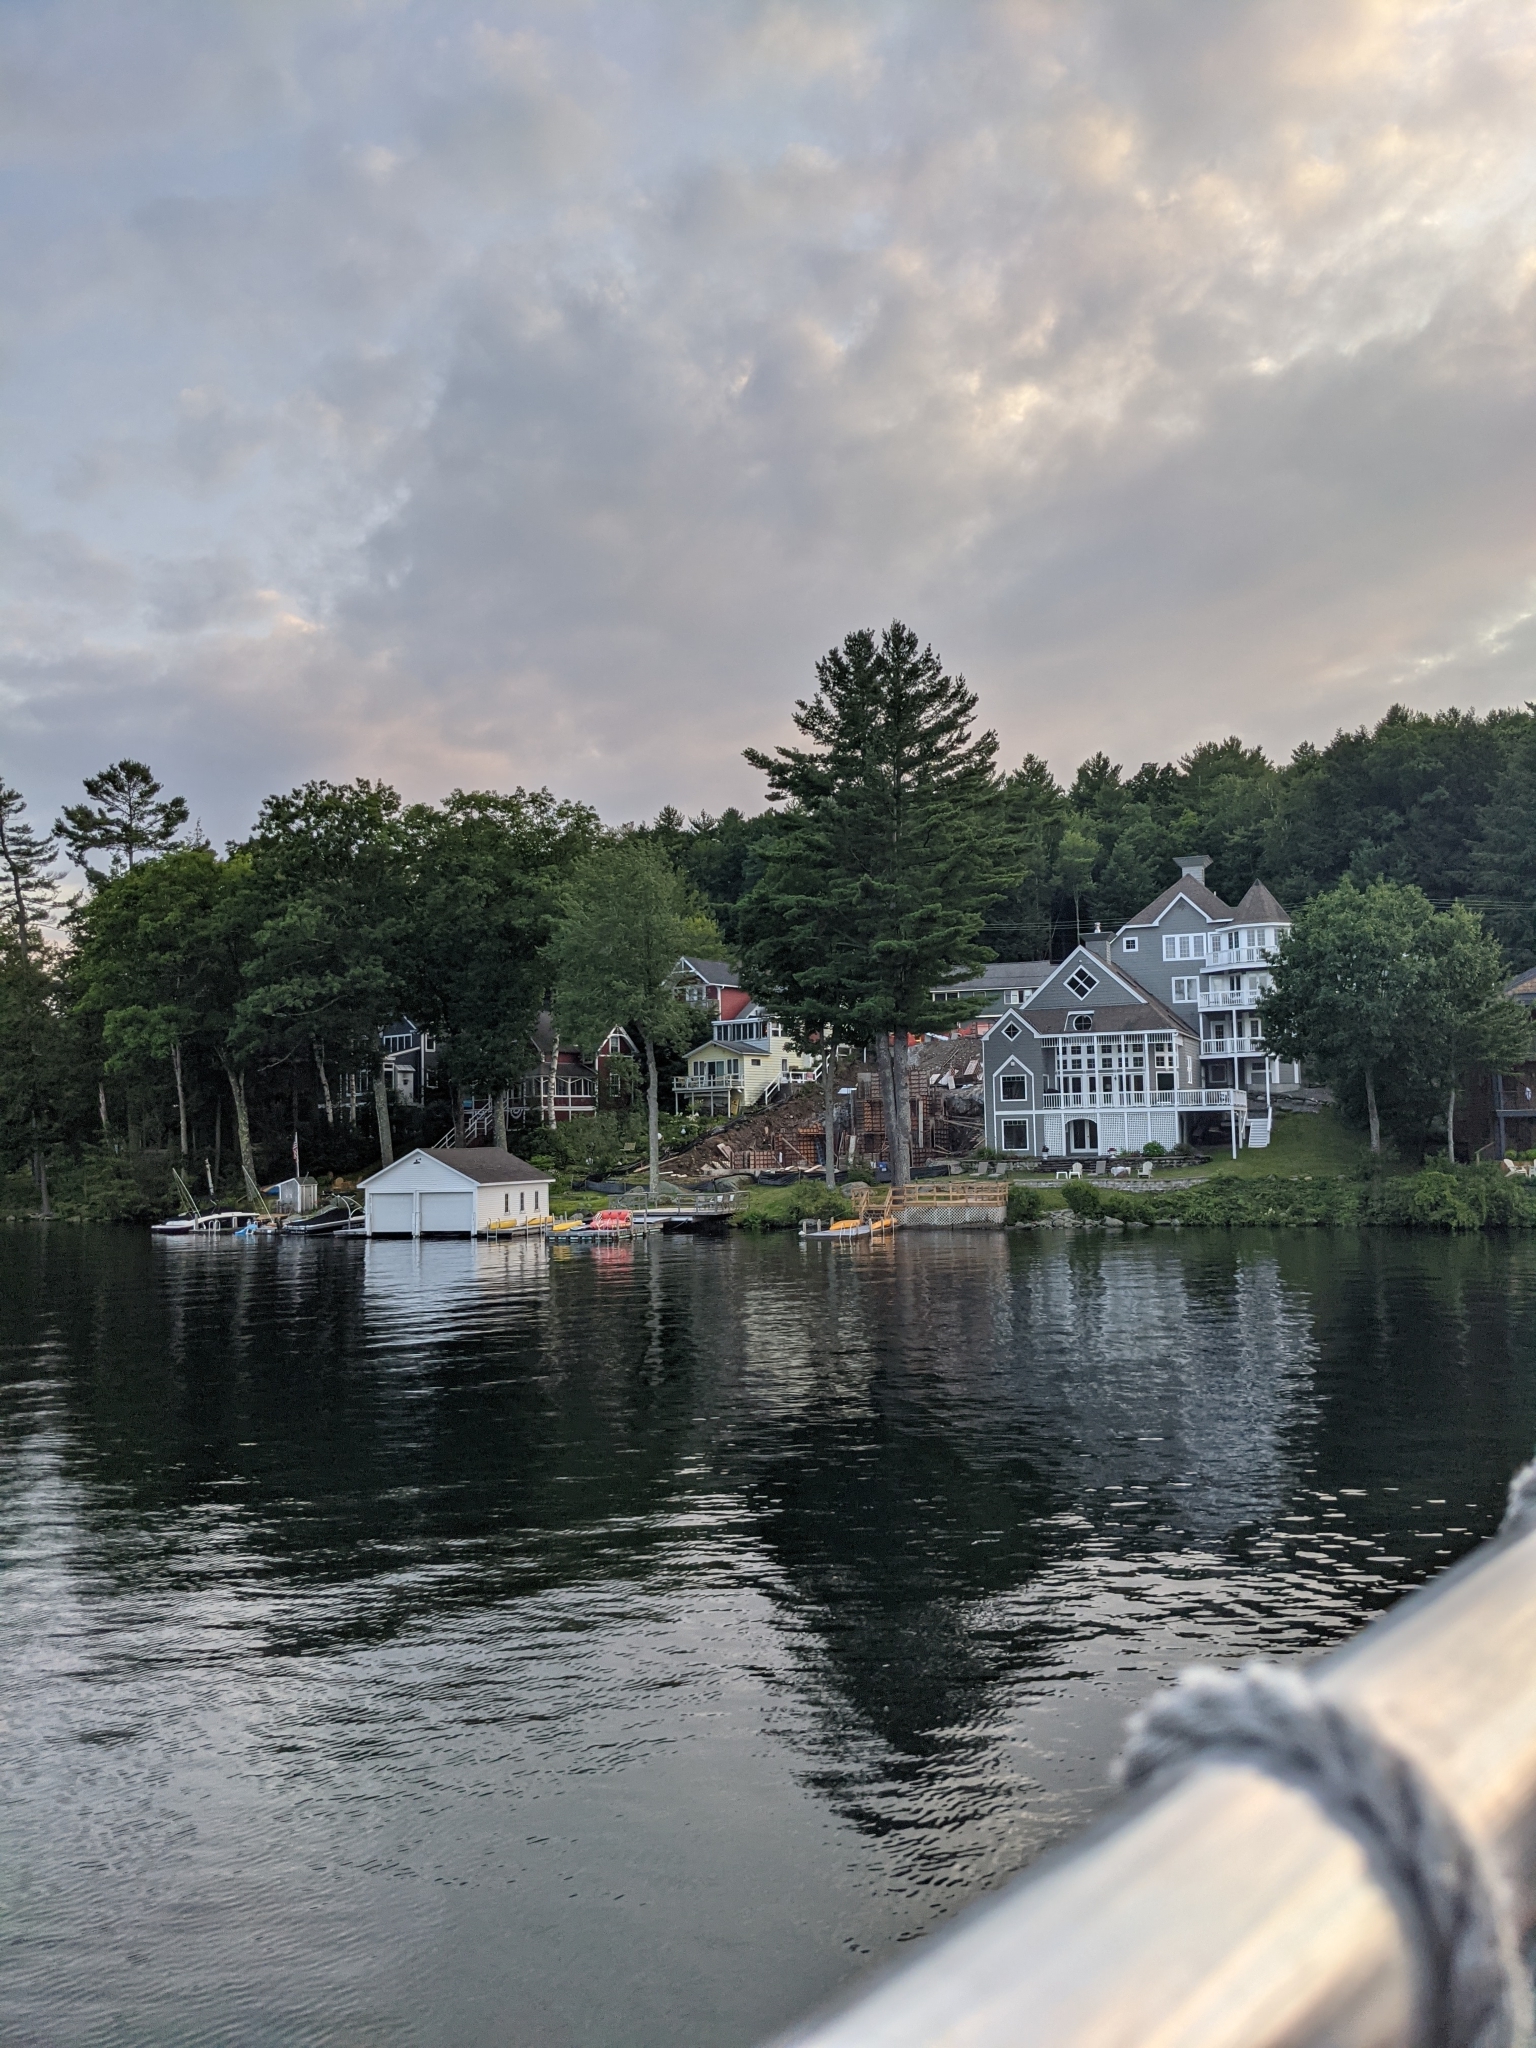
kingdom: Plantae
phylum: Tracheophyta
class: Pinopsida
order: Pinales
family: Pinaceae
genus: Pinus
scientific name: Pinus strobus
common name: Weymouth pine
